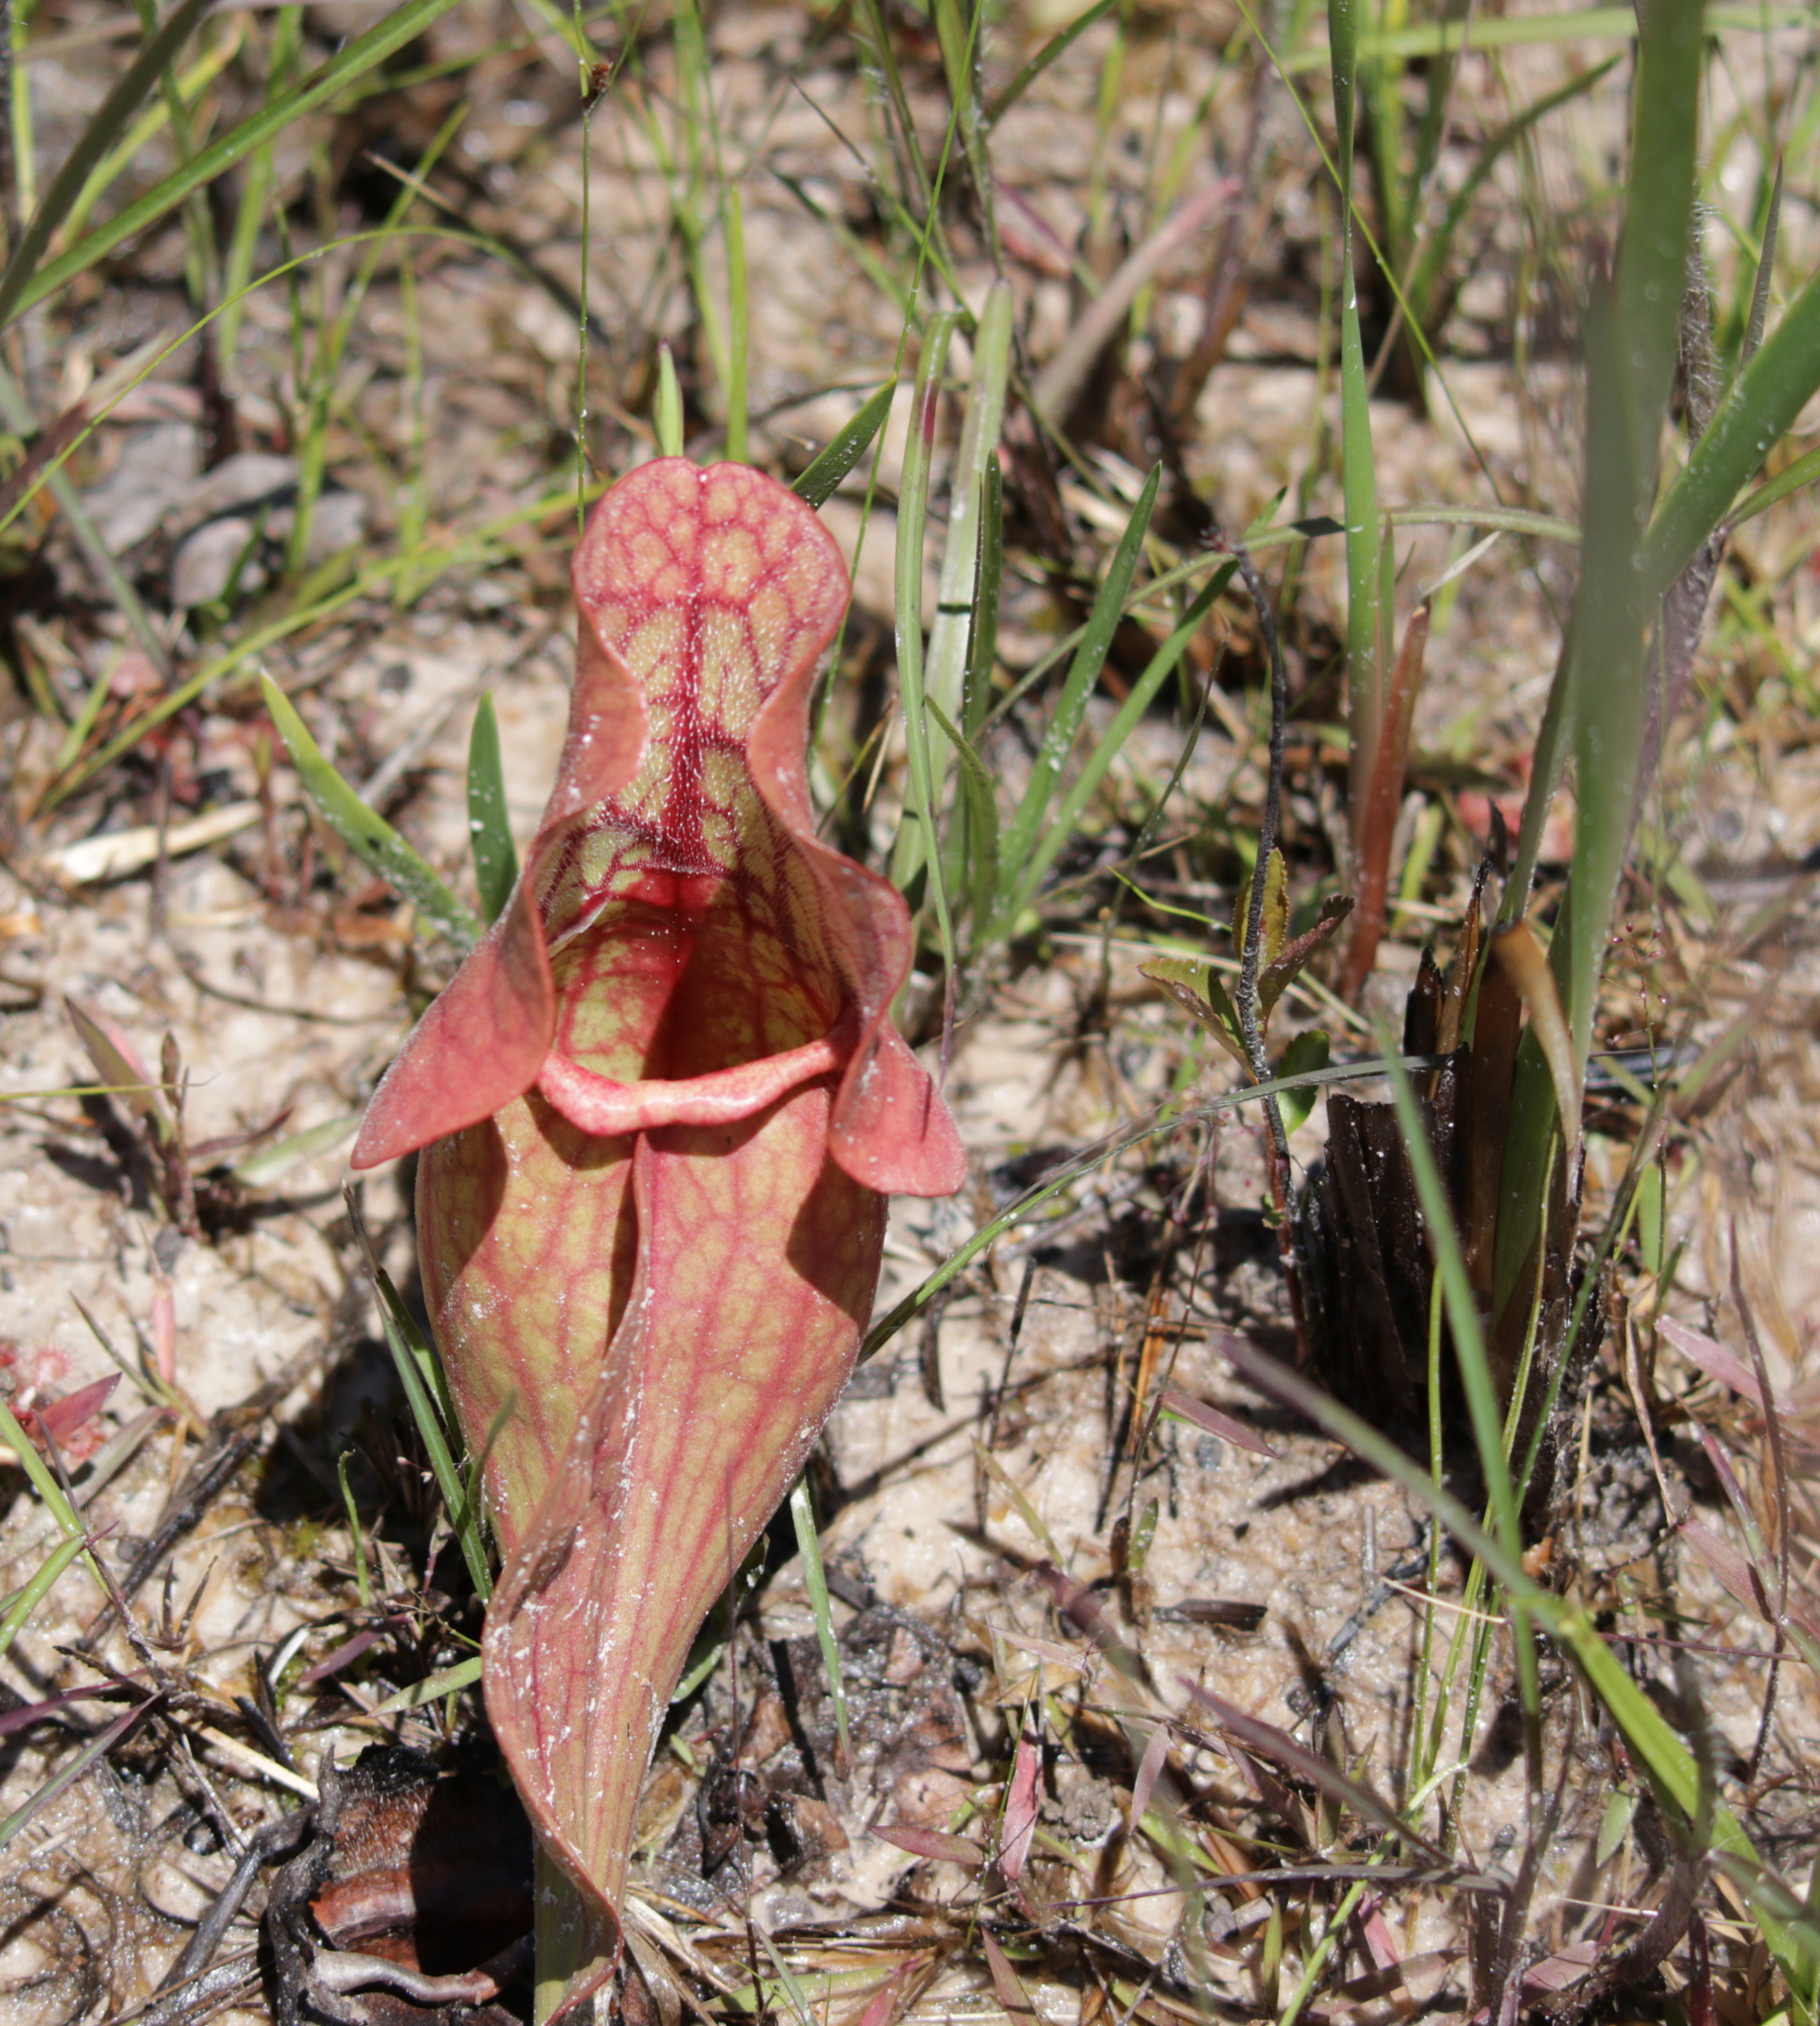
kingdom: Plantae
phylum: Tracheophyta
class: Magnoliopsida
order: Ericales
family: Sarraceniaceae
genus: Sarracenia
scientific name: Sarracenia rosea
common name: Pink pitcherplant
